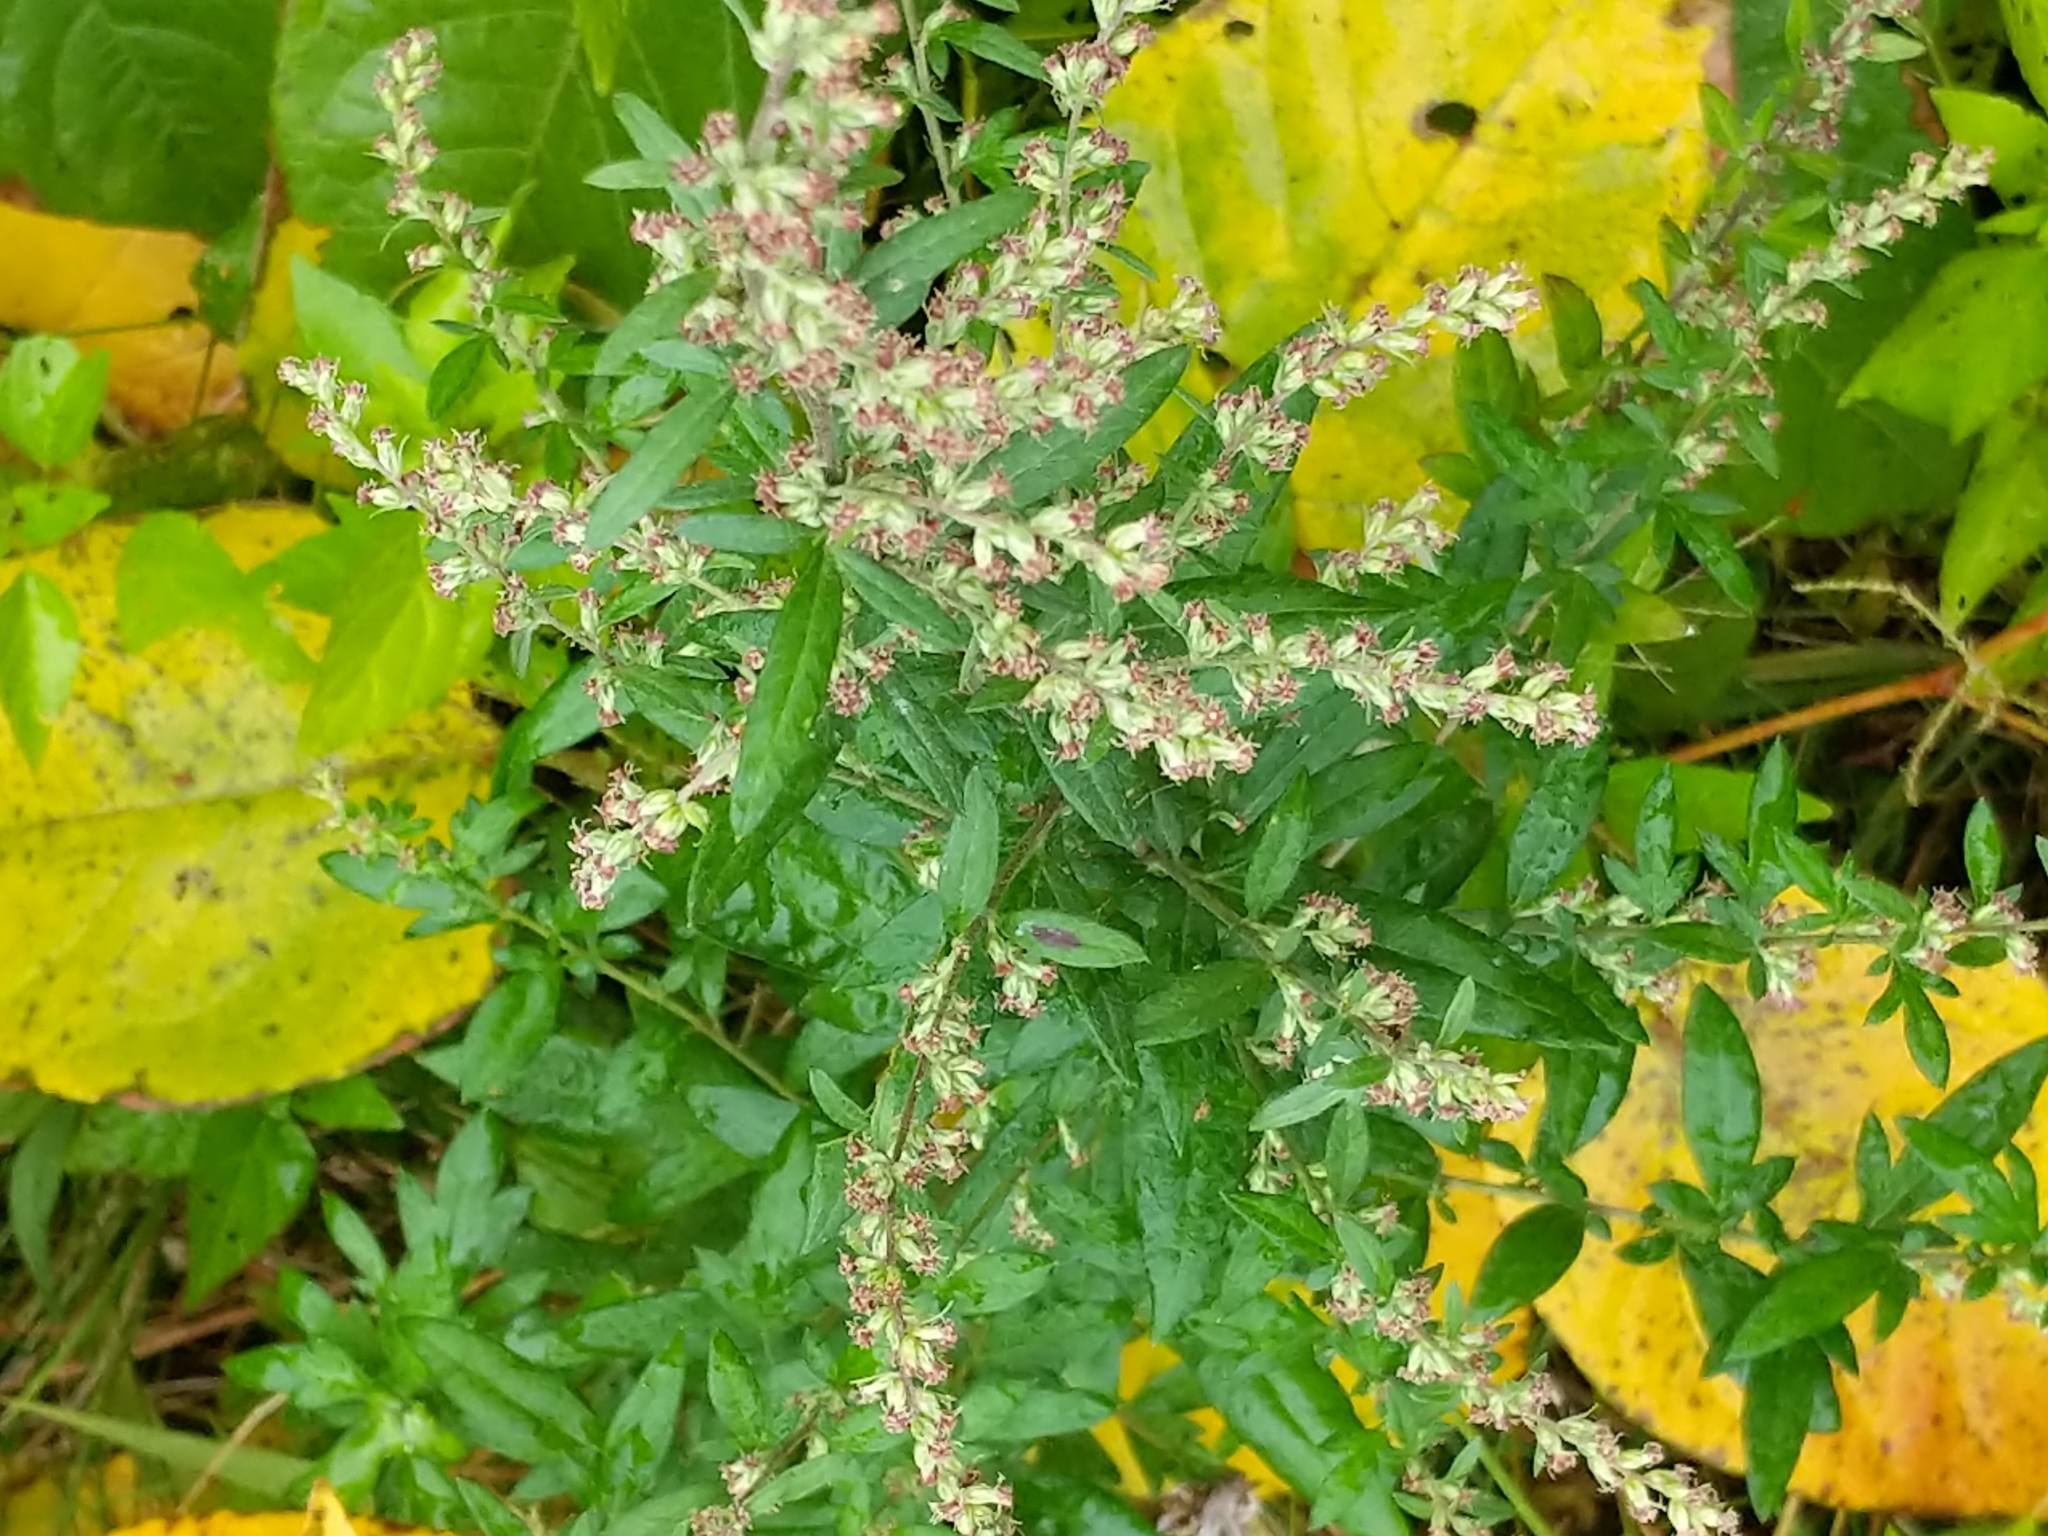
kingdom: Plantae
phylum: Tracheophyta
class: Magnoliopsida
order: Asterales
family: Asteraceae
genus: Artemisia
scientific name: Artemisia vulgaris
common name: Mugwort
